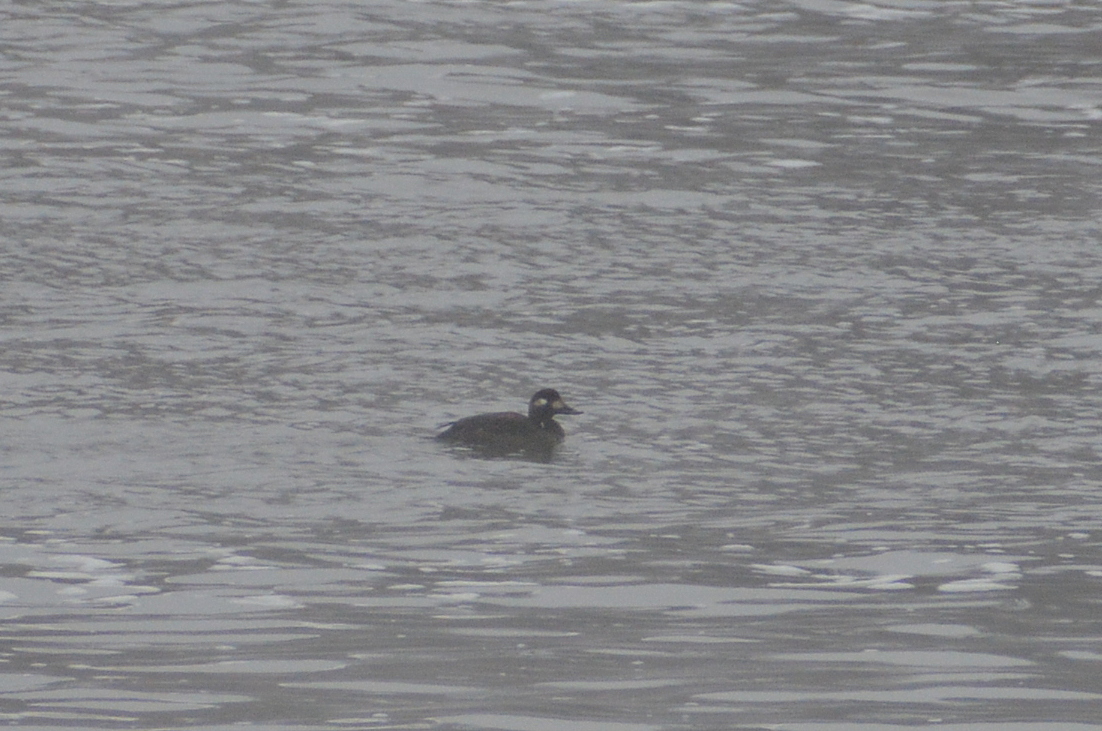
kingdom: Animalia
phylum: Chordata
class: Aves
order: Anseriformes
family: Anatidae
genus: Melanitta
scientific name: Melanitta fusca
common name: Velvet scoter
